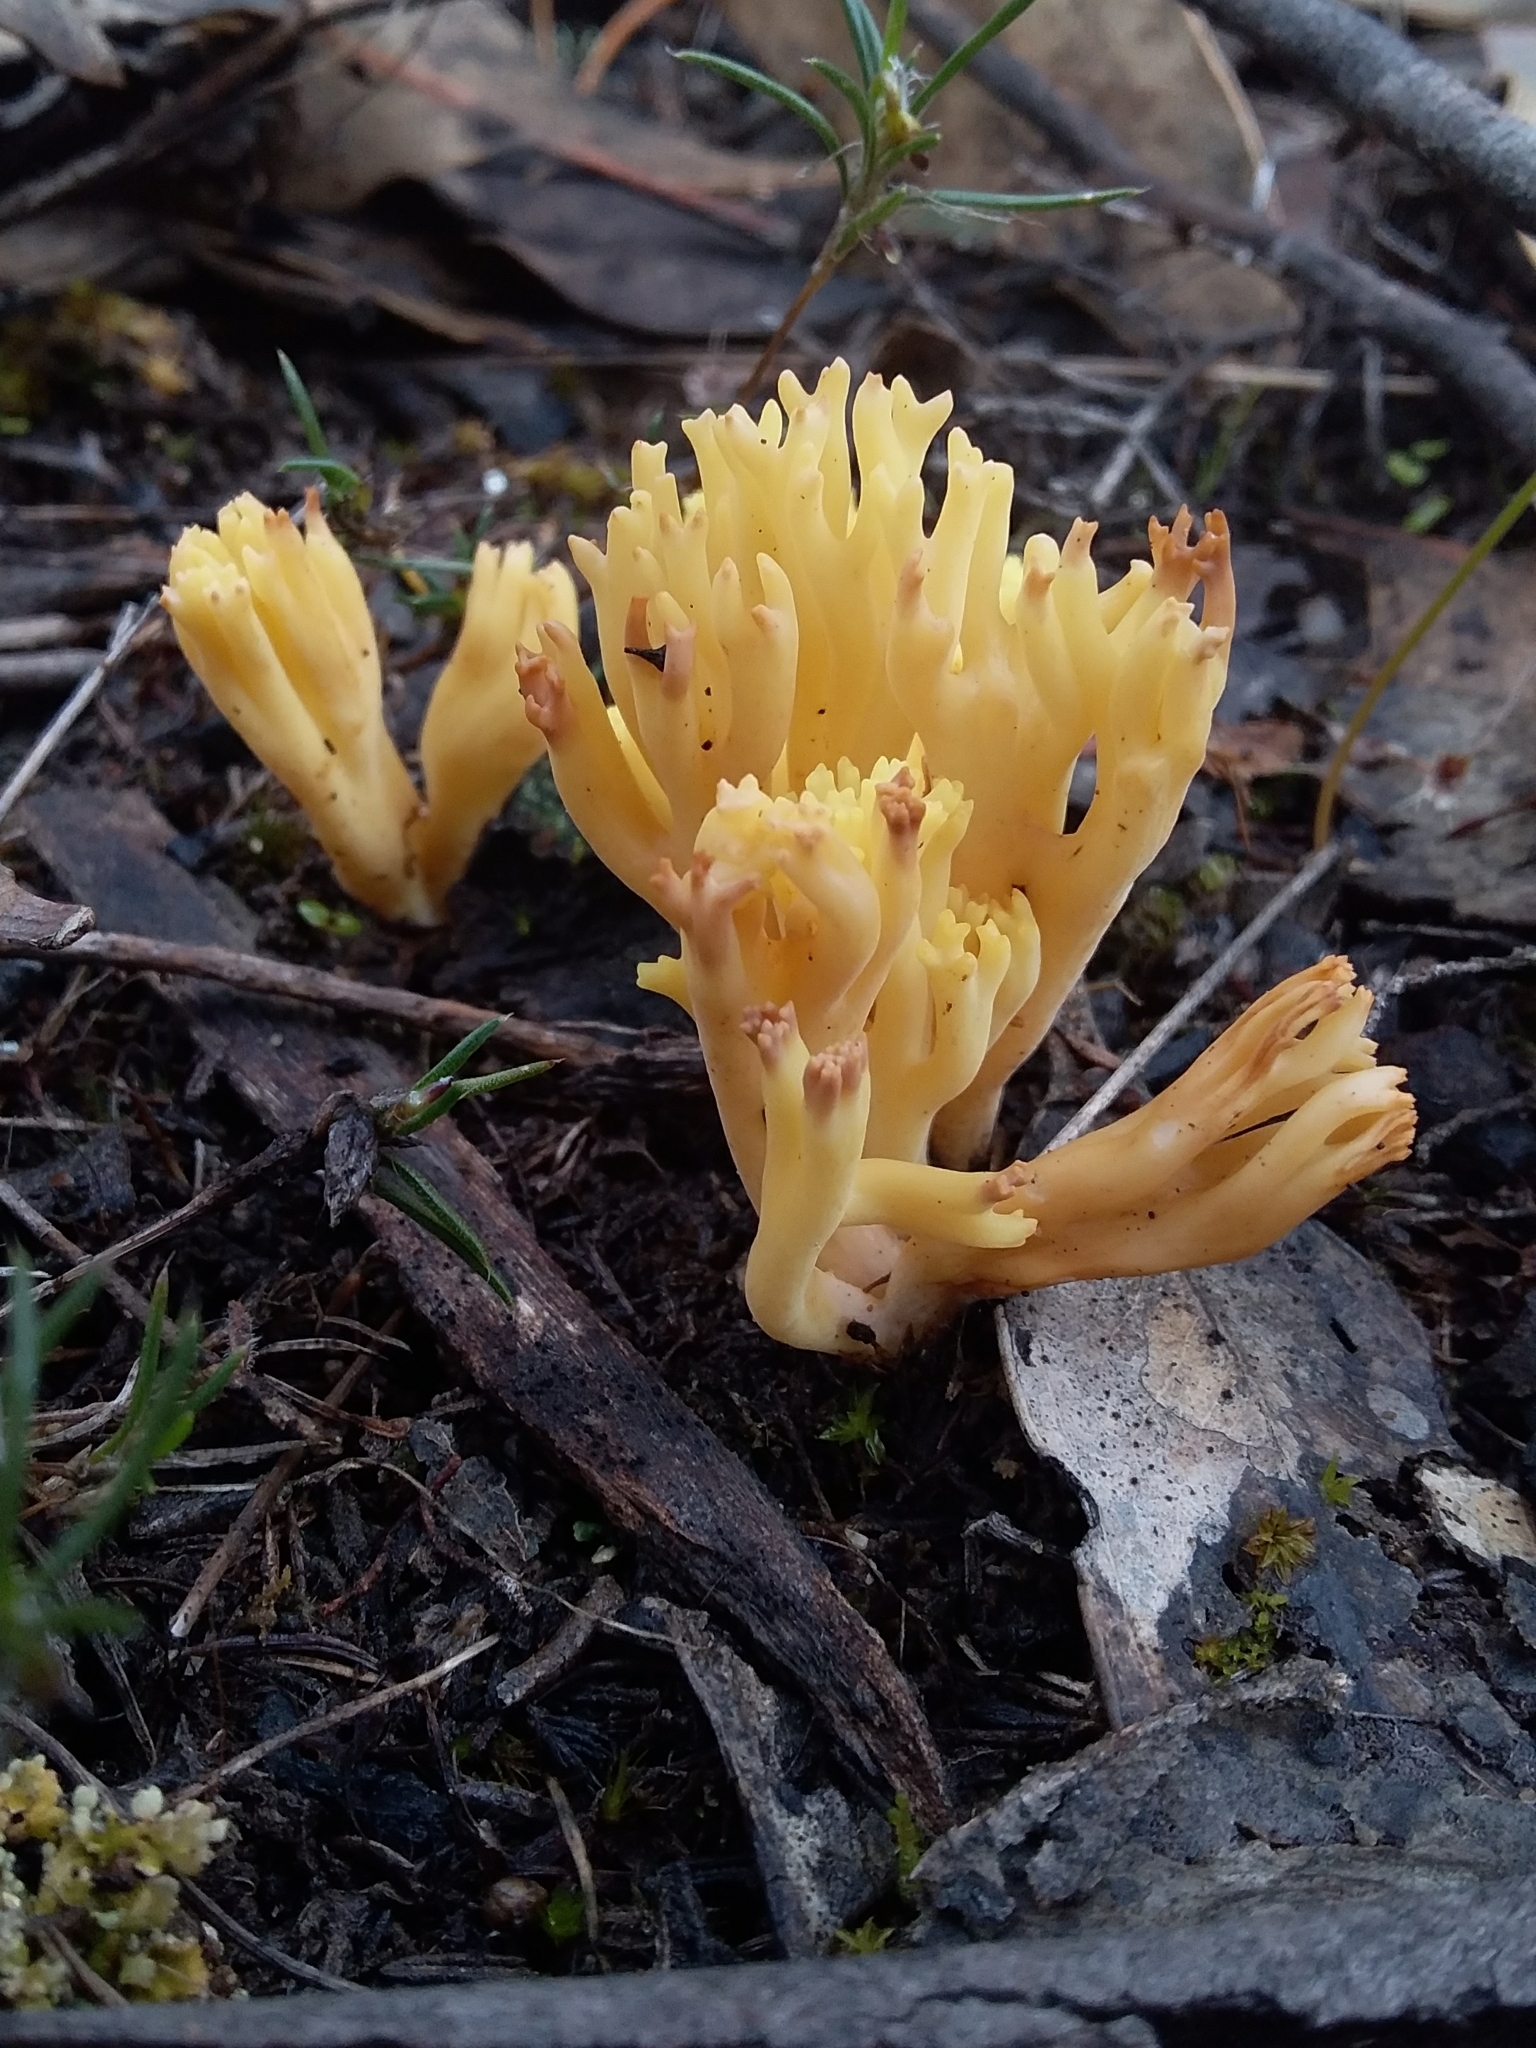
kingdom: Fungi
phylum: Basidiomycota
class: Agaricomycetes
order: Gomphales
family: Gomphaceae
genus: Ramaria
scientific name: Ramaria lorithamnus
